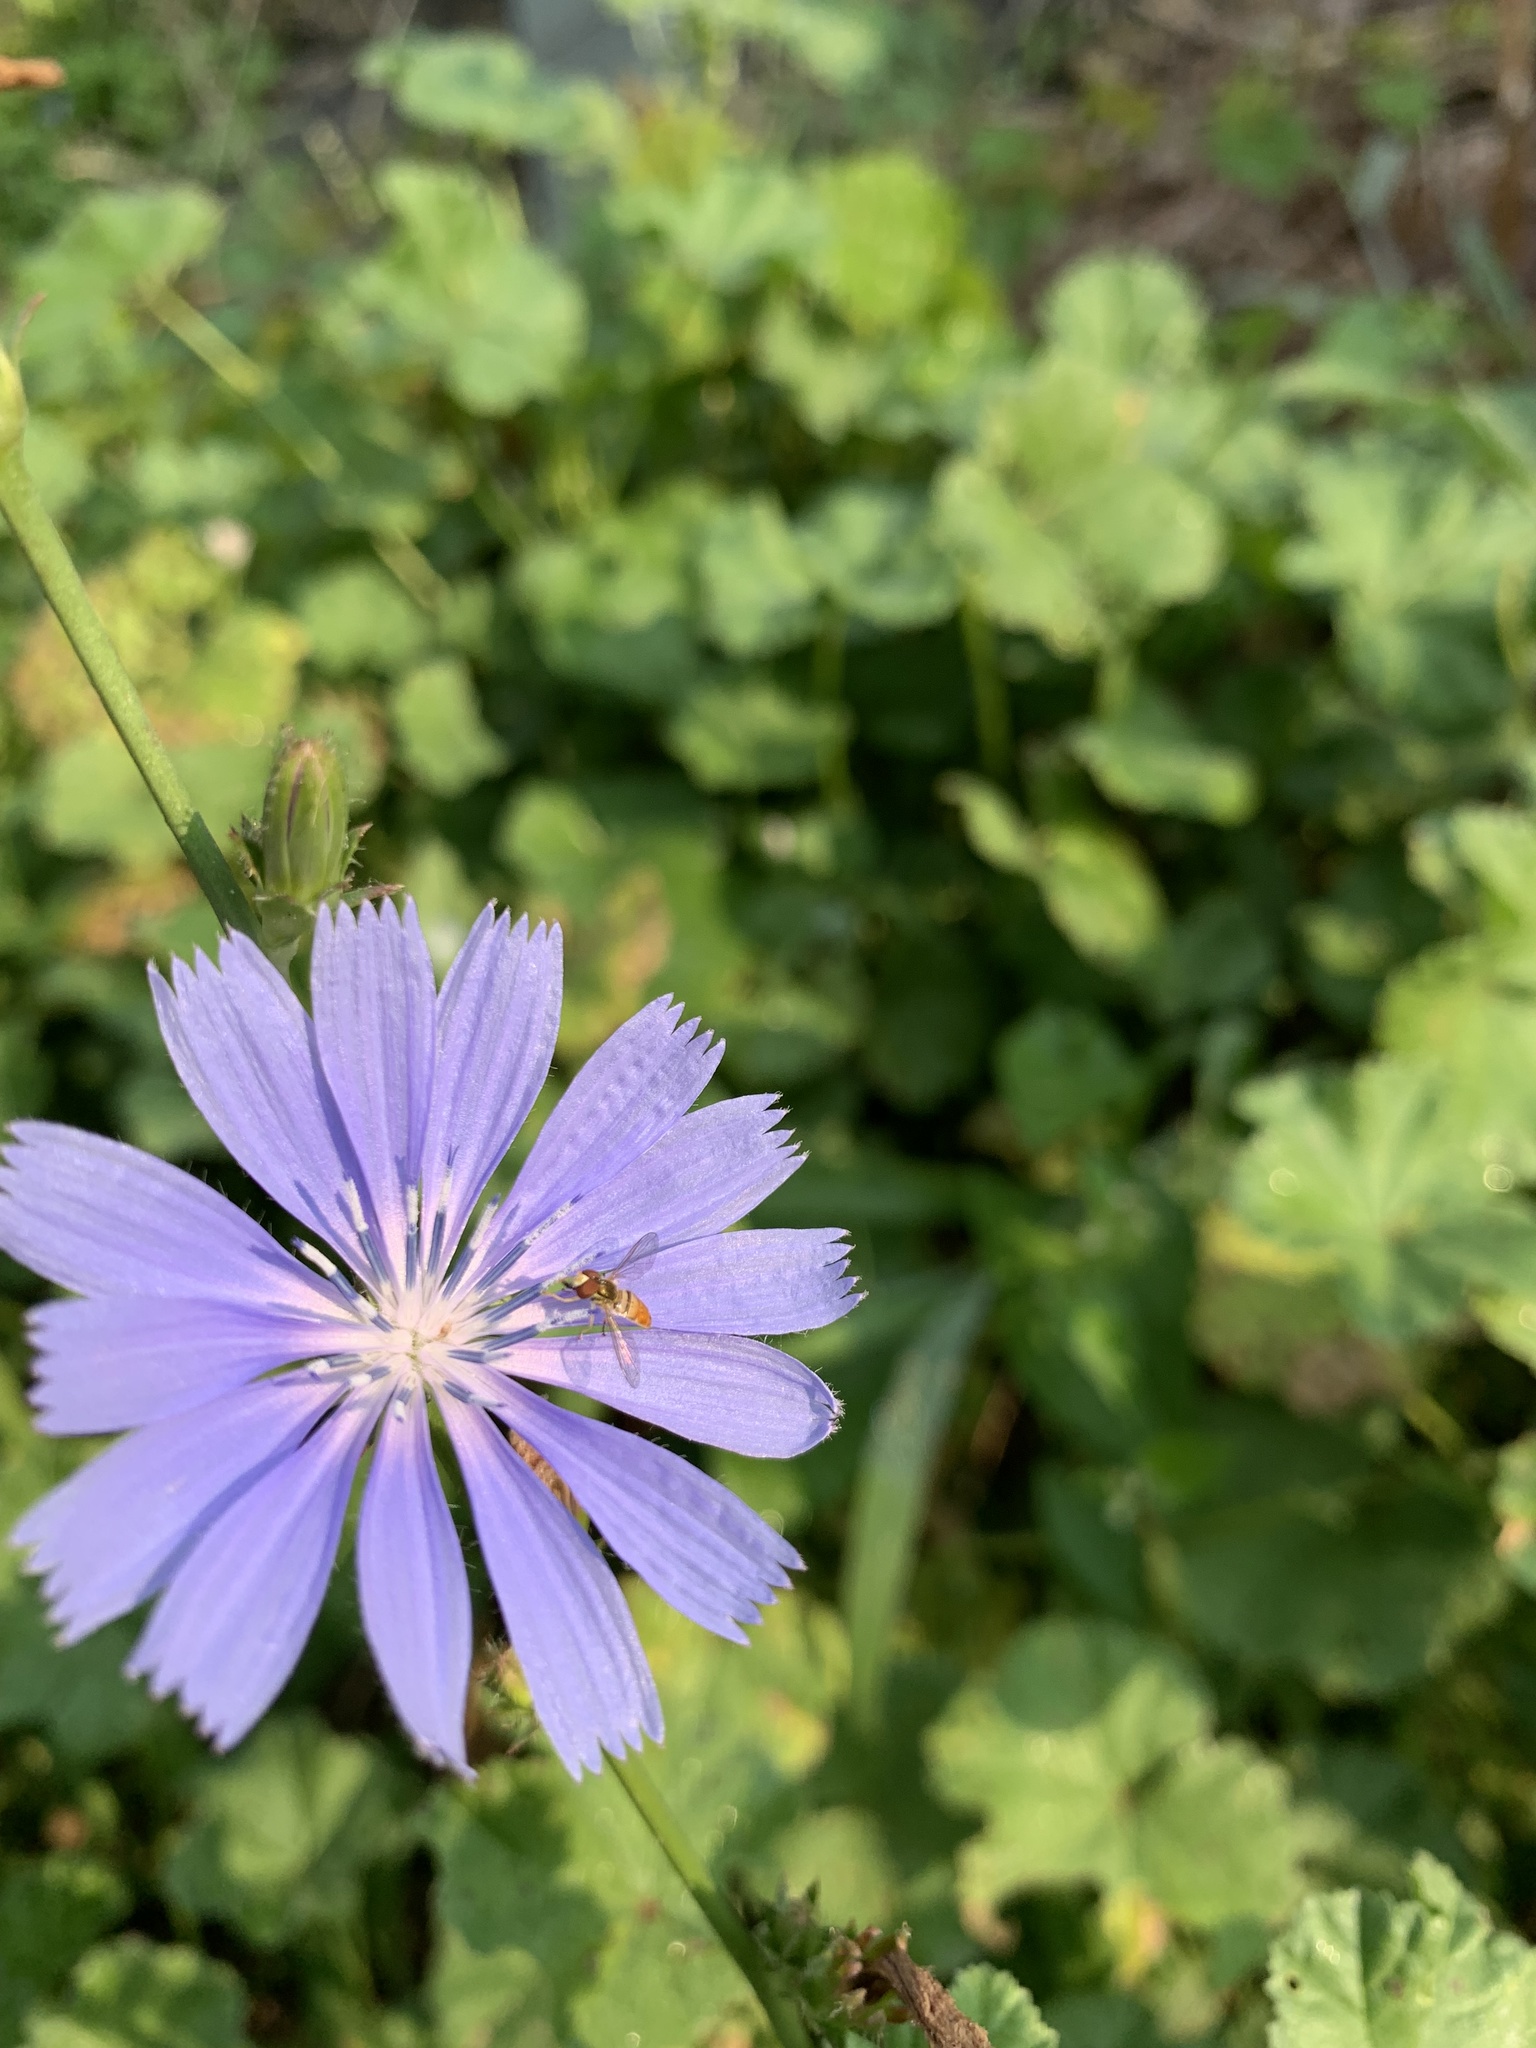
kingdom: Plantae
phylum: Tracheophyta
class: Magnoliopsida
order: Asterales
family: Asteraceae
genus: Cichorium
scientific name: Cichorium intybus
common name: Chicory
